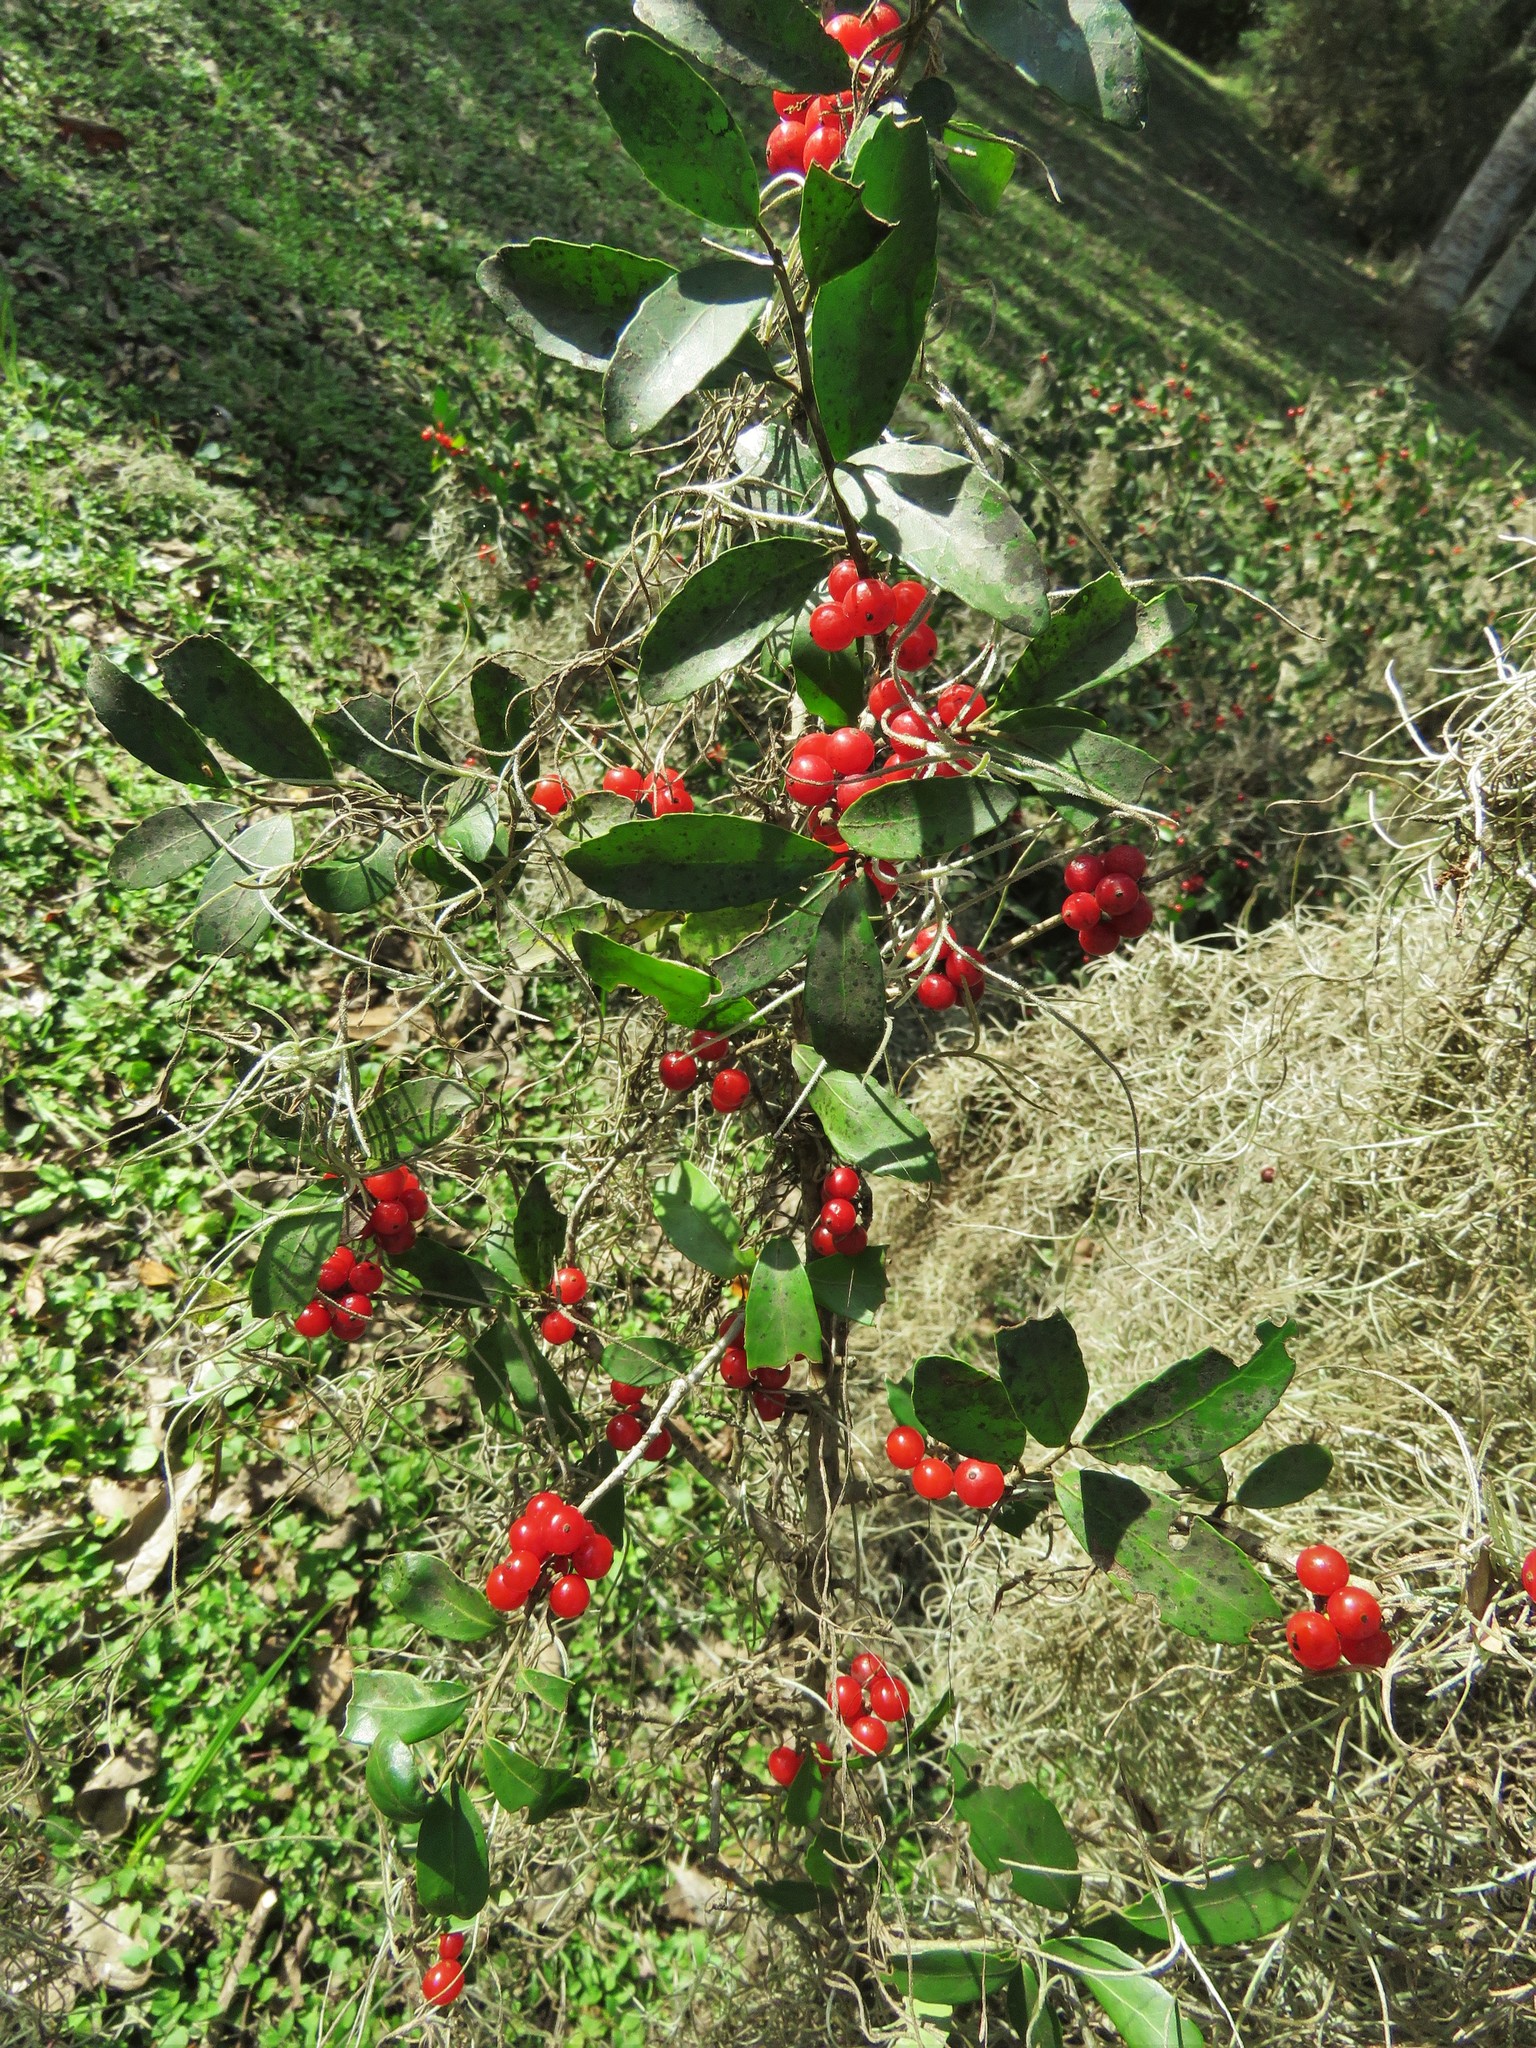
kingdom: Plantae
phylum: Tracheophyta
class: Magnoliopsida
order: Aquifoliales
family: Aquifoliaceae
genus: Ilex
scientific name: Ilex vomitoria
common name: Yaupon holly
